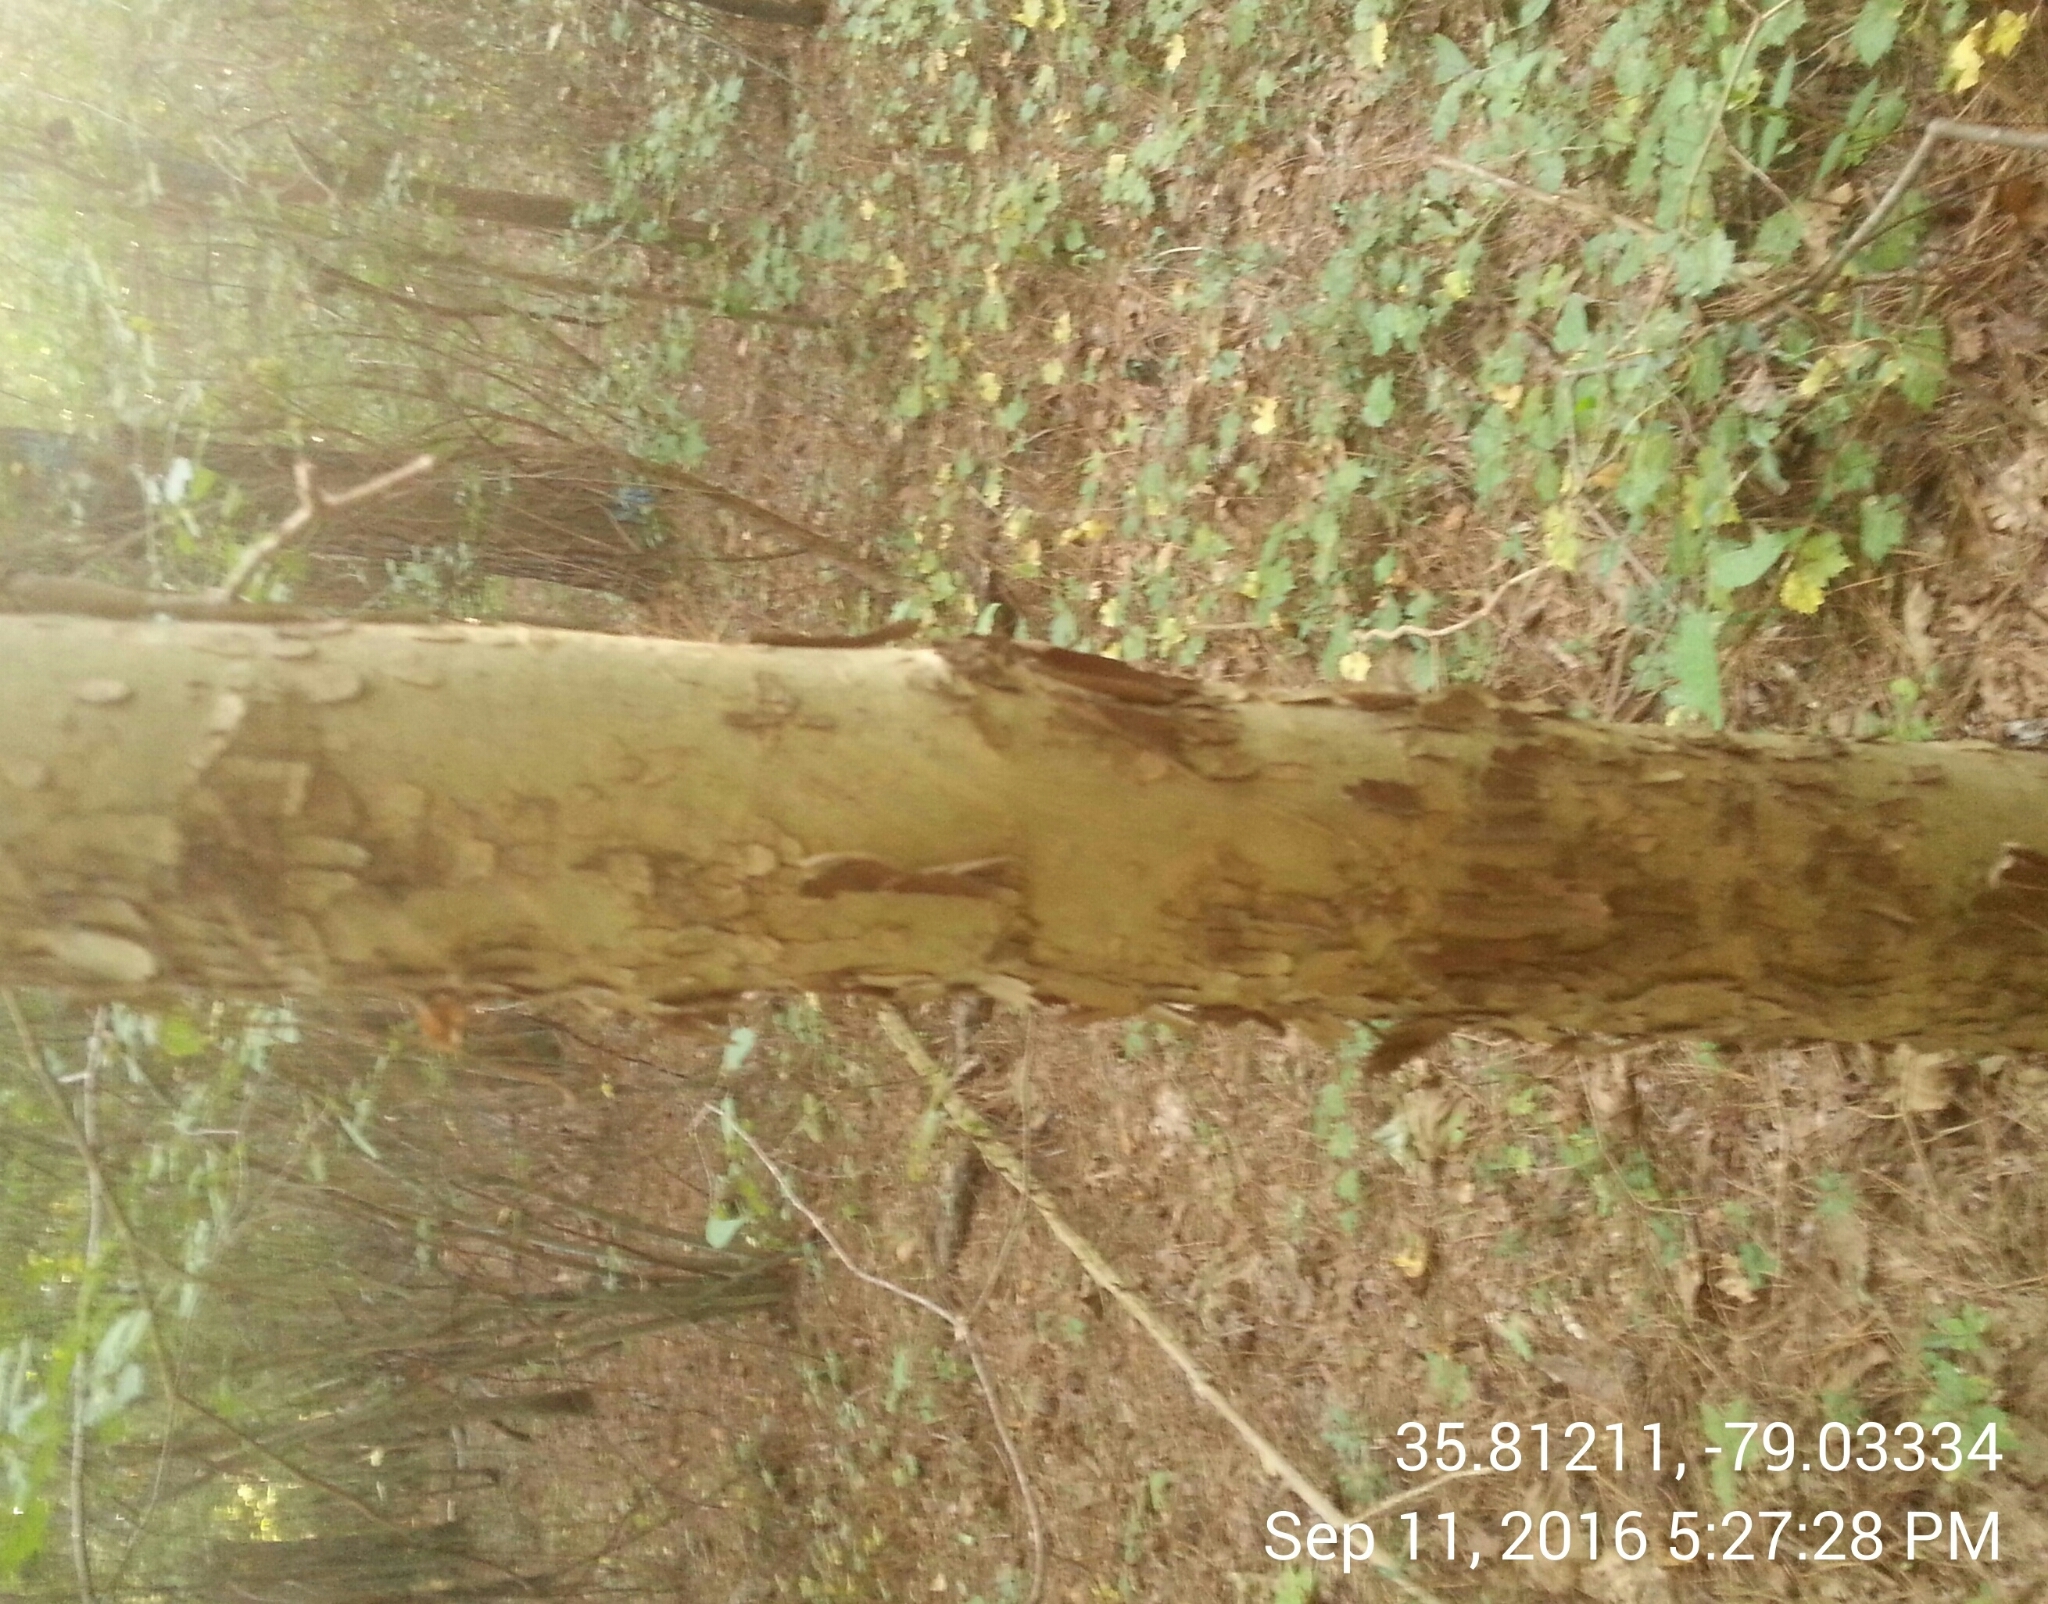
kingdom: Plantae
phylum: Tracheophyta
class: Magnoliopsida
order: Proteales
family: Platanaceae
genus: Platanus
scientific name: Platanus occidentalis
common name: American sycamore
